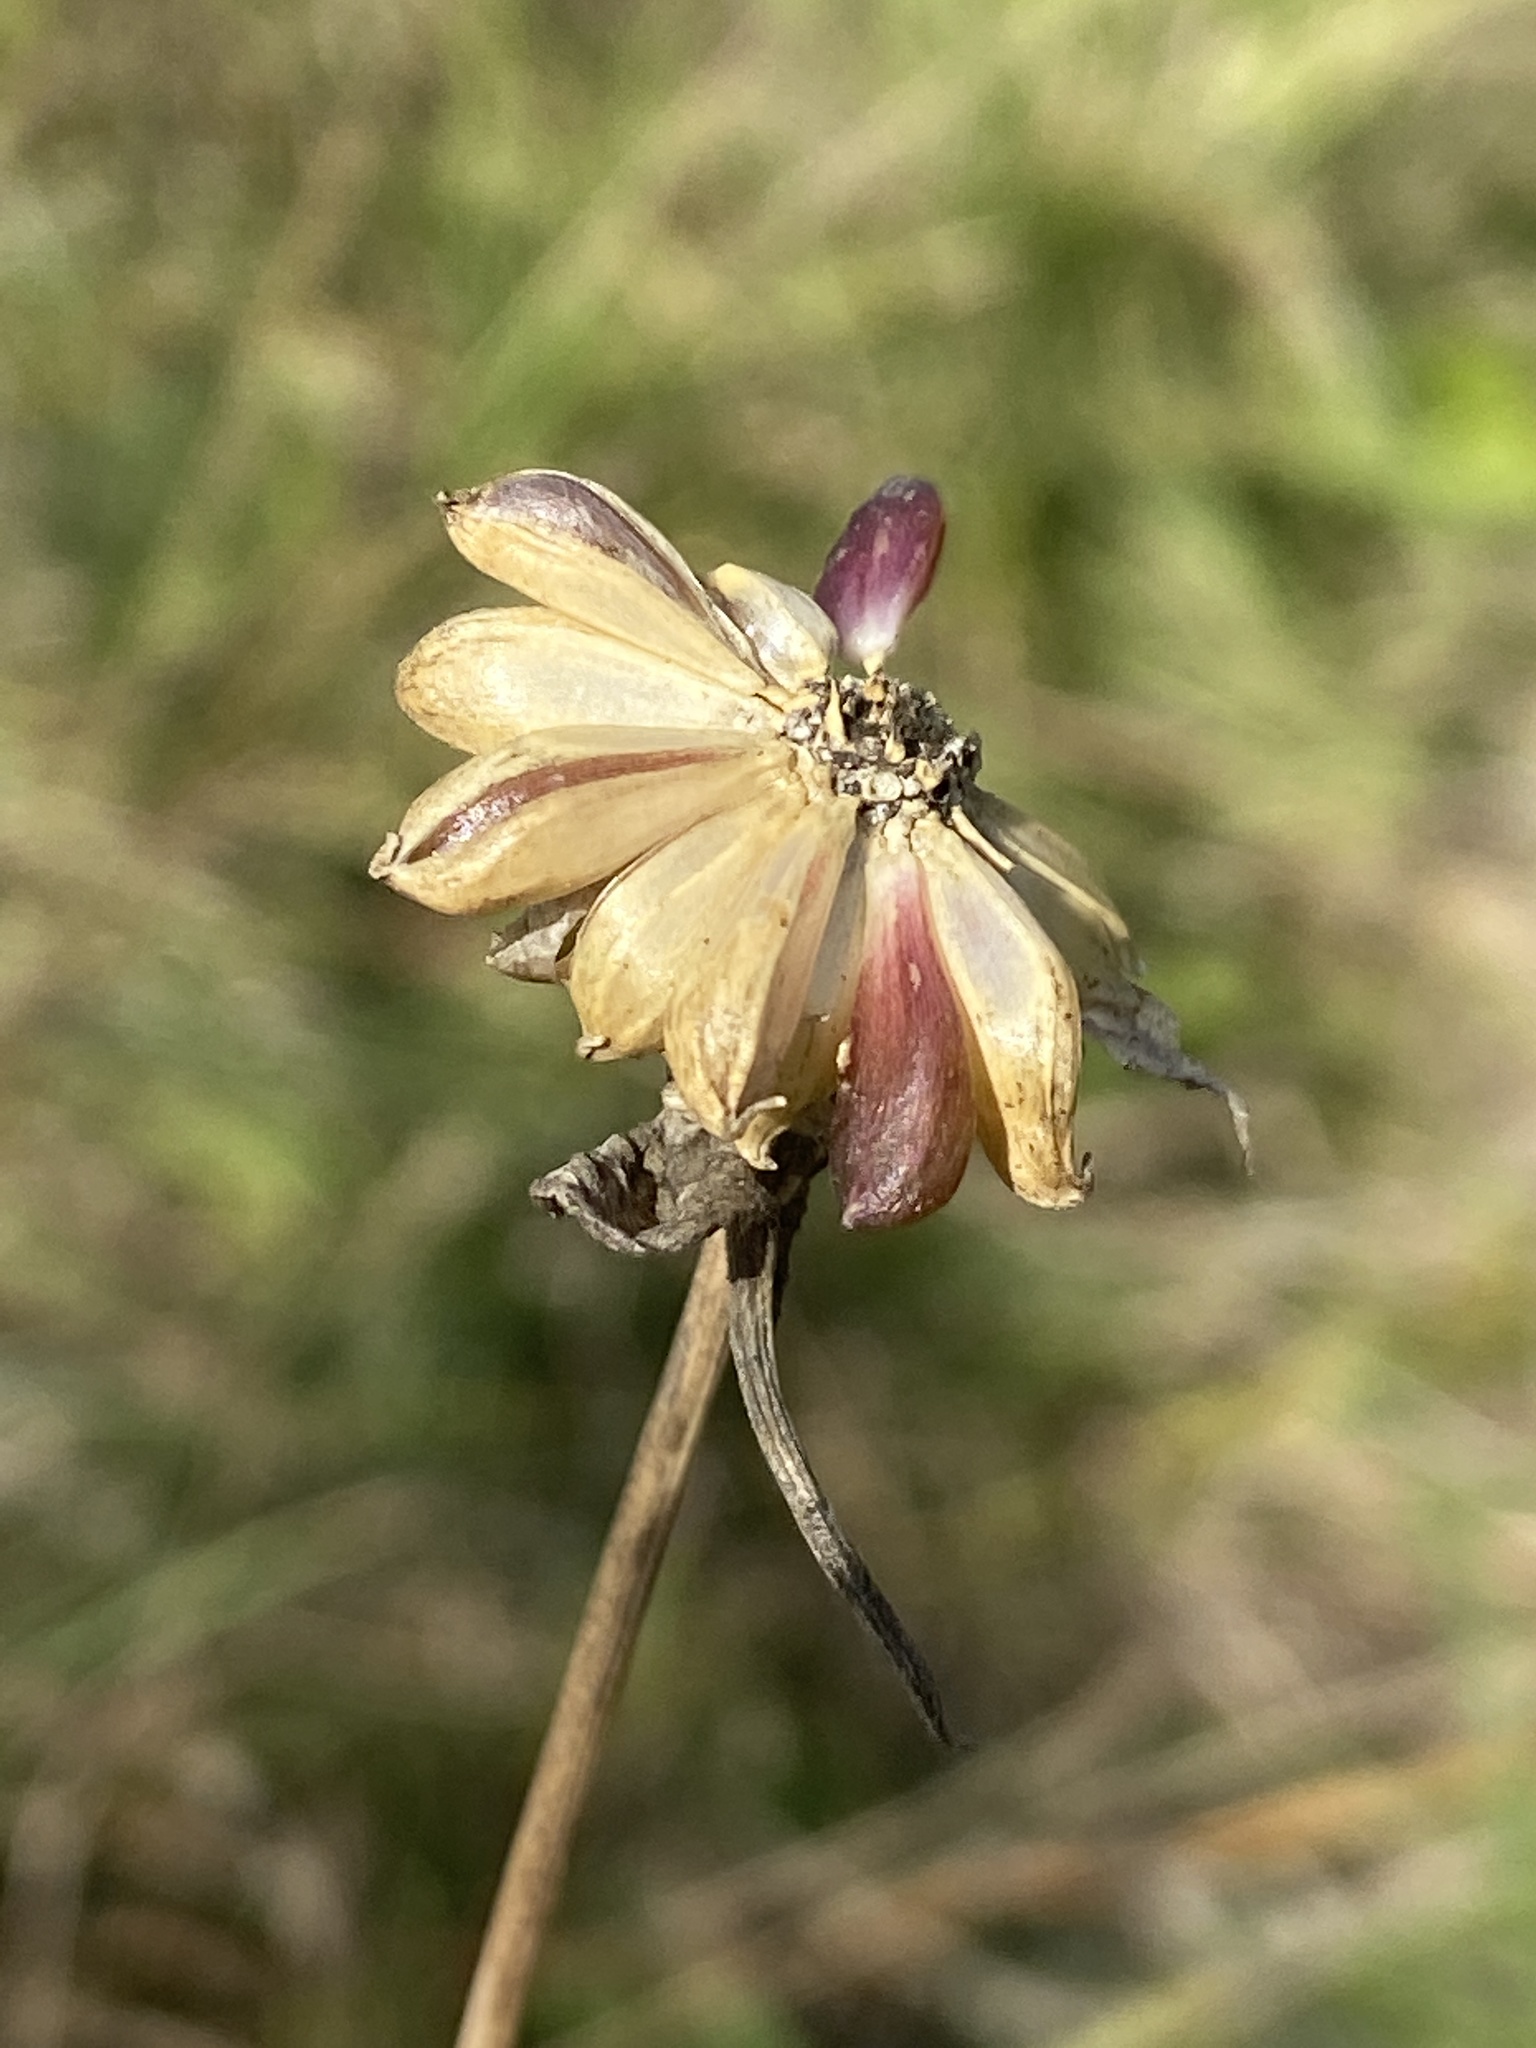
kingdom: Plantae
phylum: Tracheophyta
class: Magnoliopsida
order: Dipsacales
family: Caprifoliaceae
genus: Succisa
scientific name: Succisa pratensis
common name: Devil's-bit
